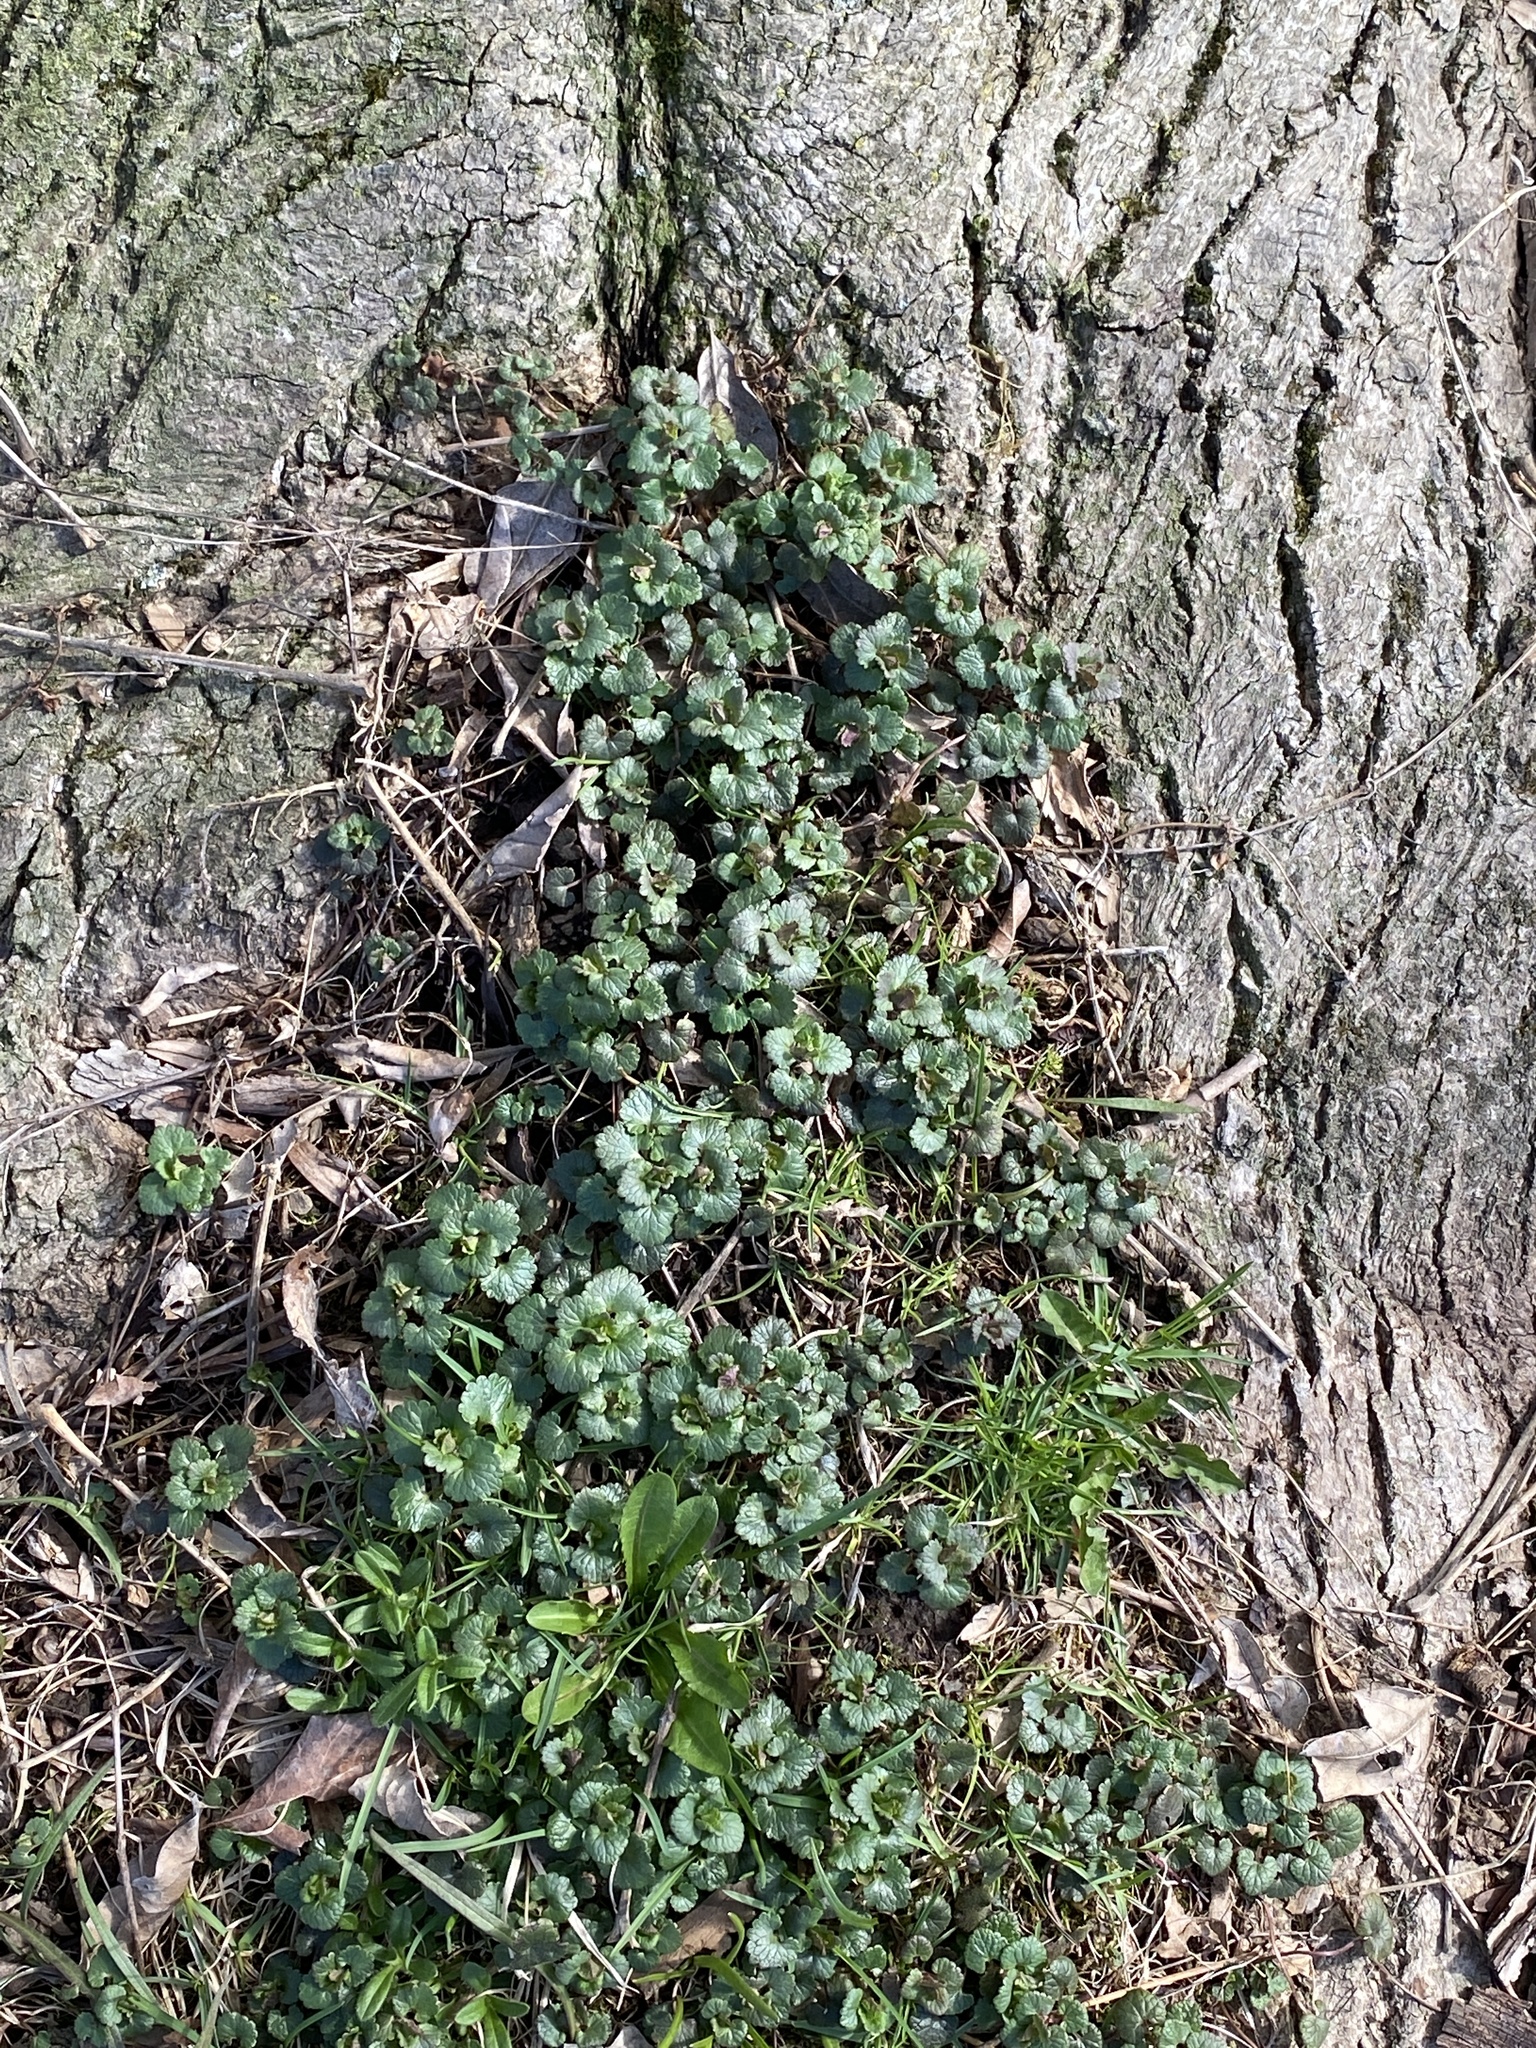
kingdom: Plantae
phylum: Tracheophyta
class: Magnoliopsida
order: Lamiales
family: Lamiaceae
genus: Glechoma
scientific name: Glechoma hederacea
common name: Ground ivy
